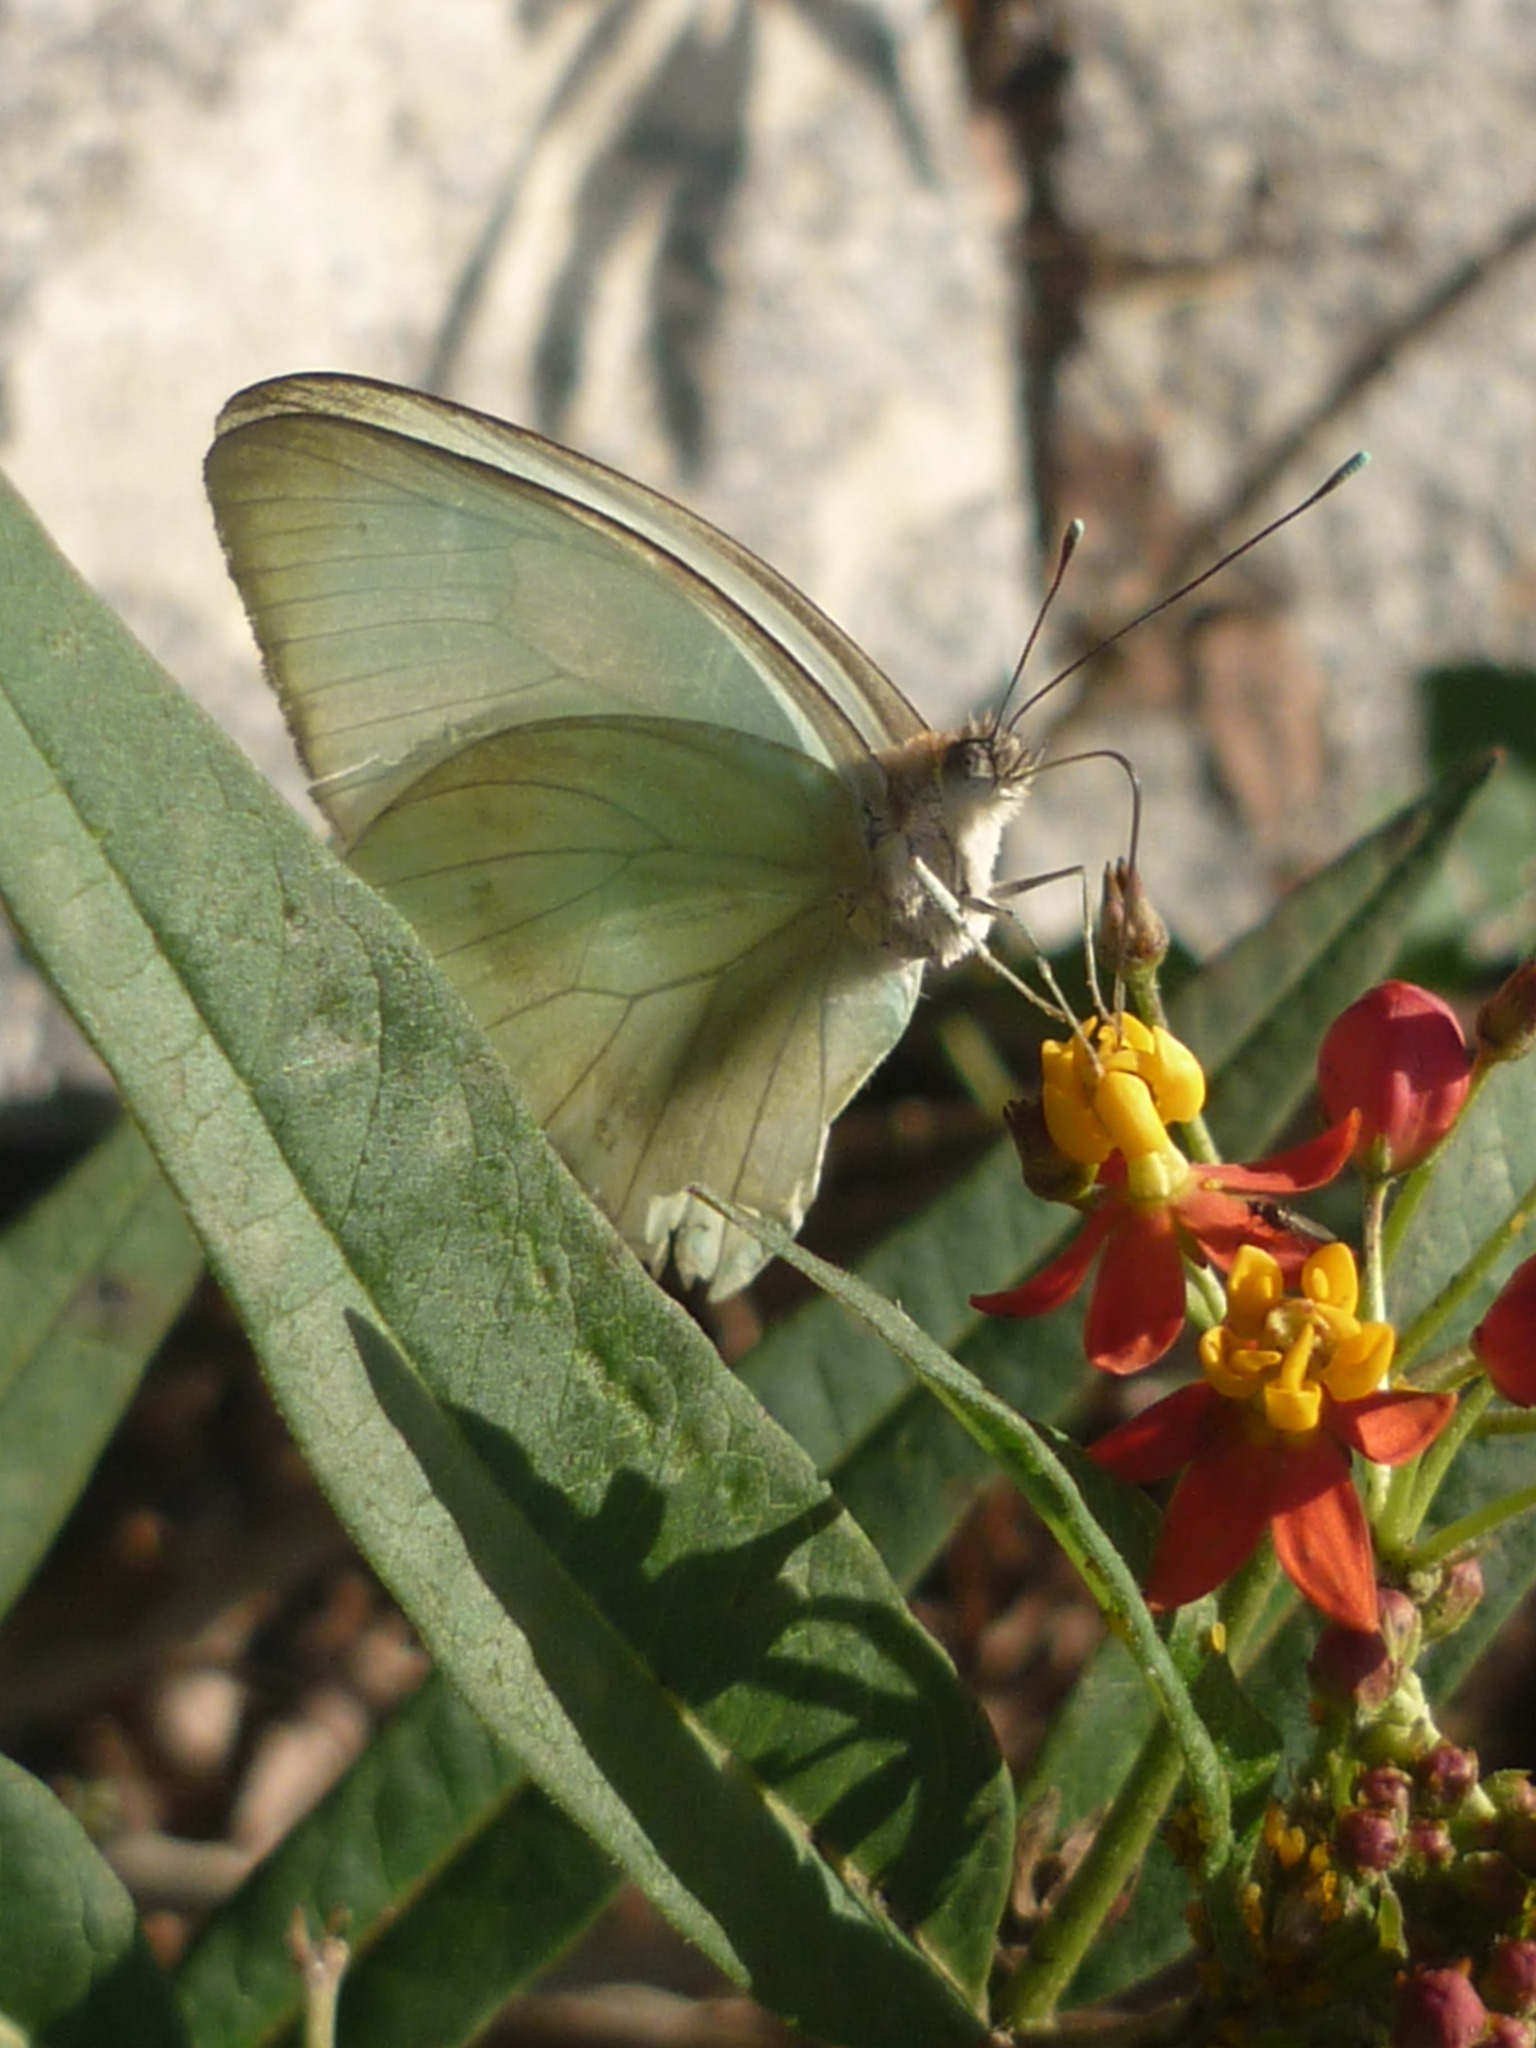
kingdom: Animalia
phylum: Arthropoda
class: Insecta
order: Lepidoptera
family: Pieridae
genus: Ascia
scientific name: Ascia monuste
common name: Great southern white
